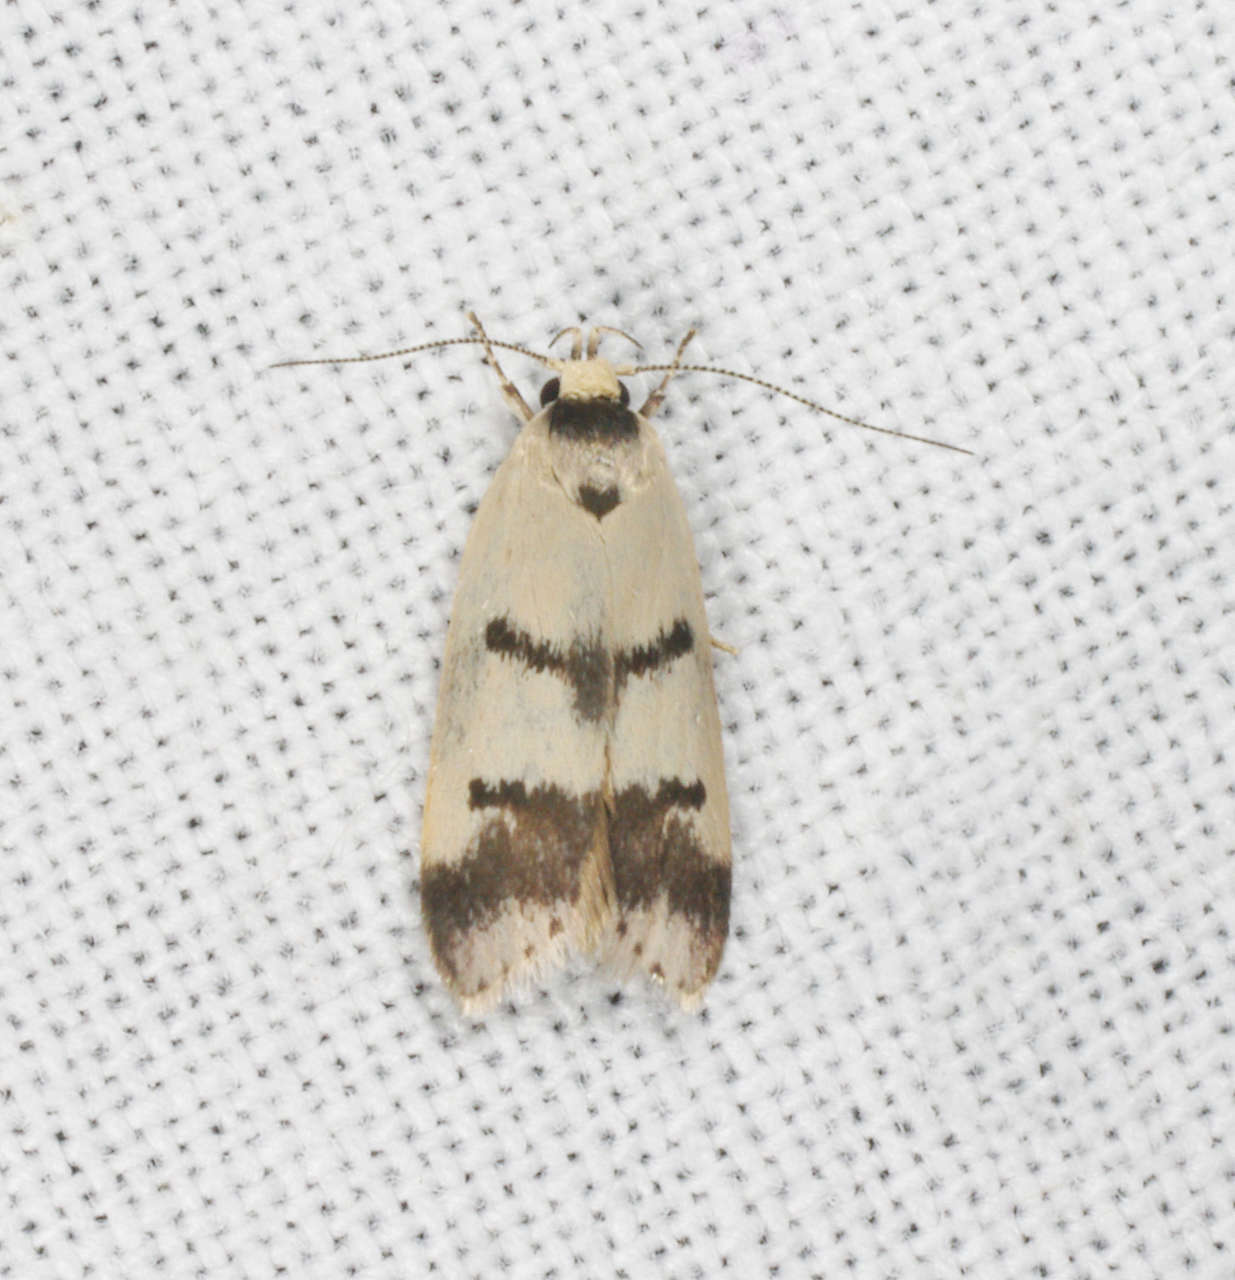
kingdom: Animalia
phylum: Arthropoda
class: Insecta
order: Lepidoptera
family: Oecophoridae
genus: Compsotropha
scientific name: Compsotropha strophiella
